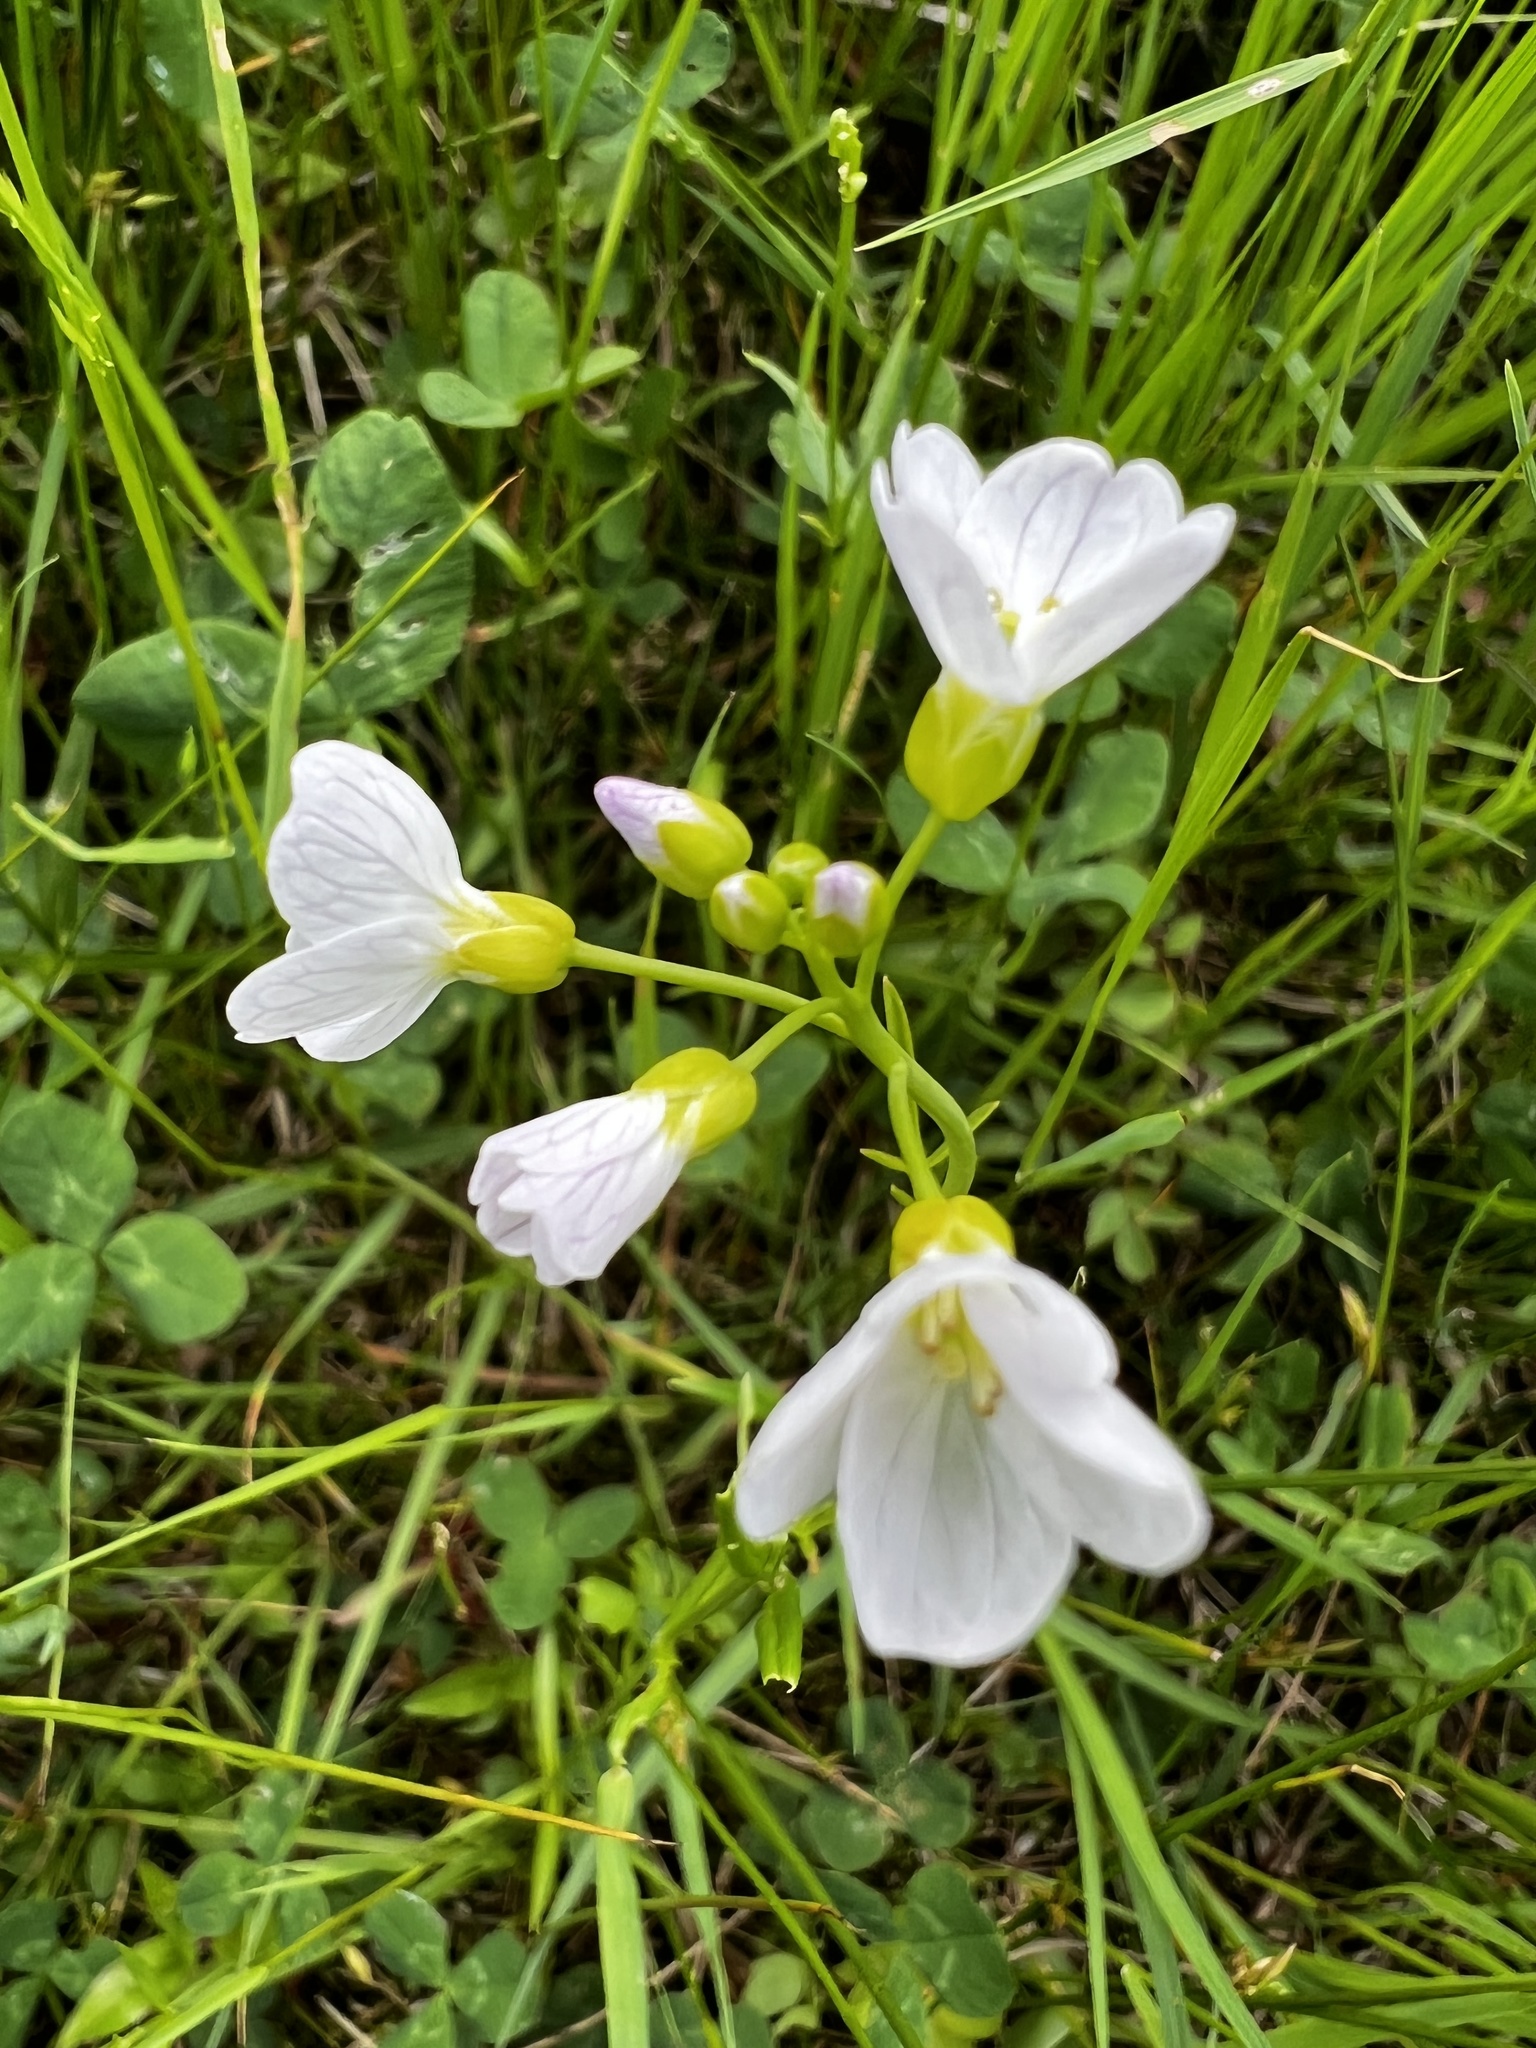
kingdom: Plantae
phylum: Tracheophyta
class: Magnoliopsida
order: Brassicales
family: Brassicaceae
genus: Cardamine
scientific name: Cardamine pratensis
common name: Cuckoo flower
